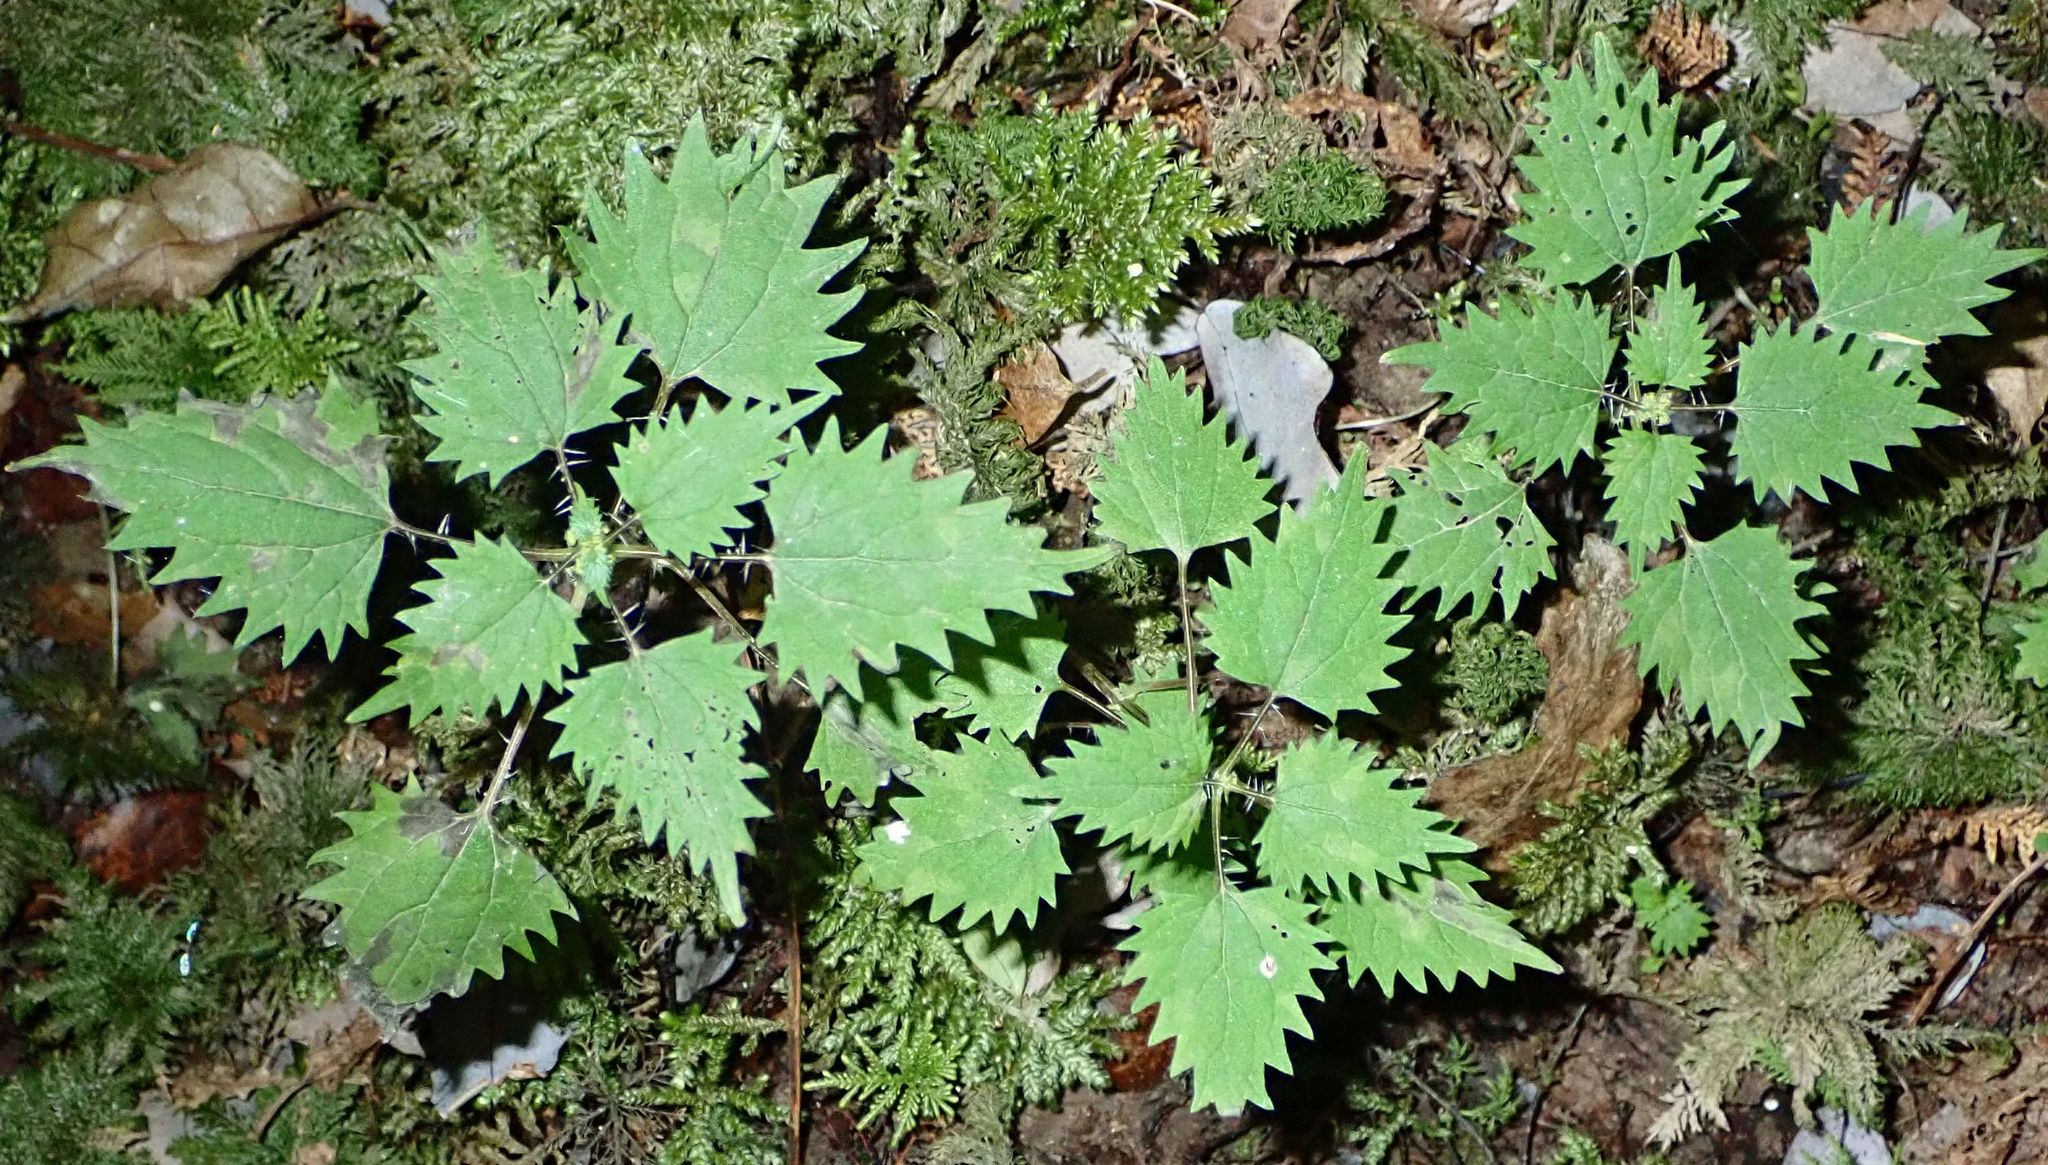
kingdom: Plantae
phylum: Tracheophyta
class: Magnoliopsida
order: Rosales
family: Urticaceae
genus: Urtica
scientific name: Urtica sykesii
